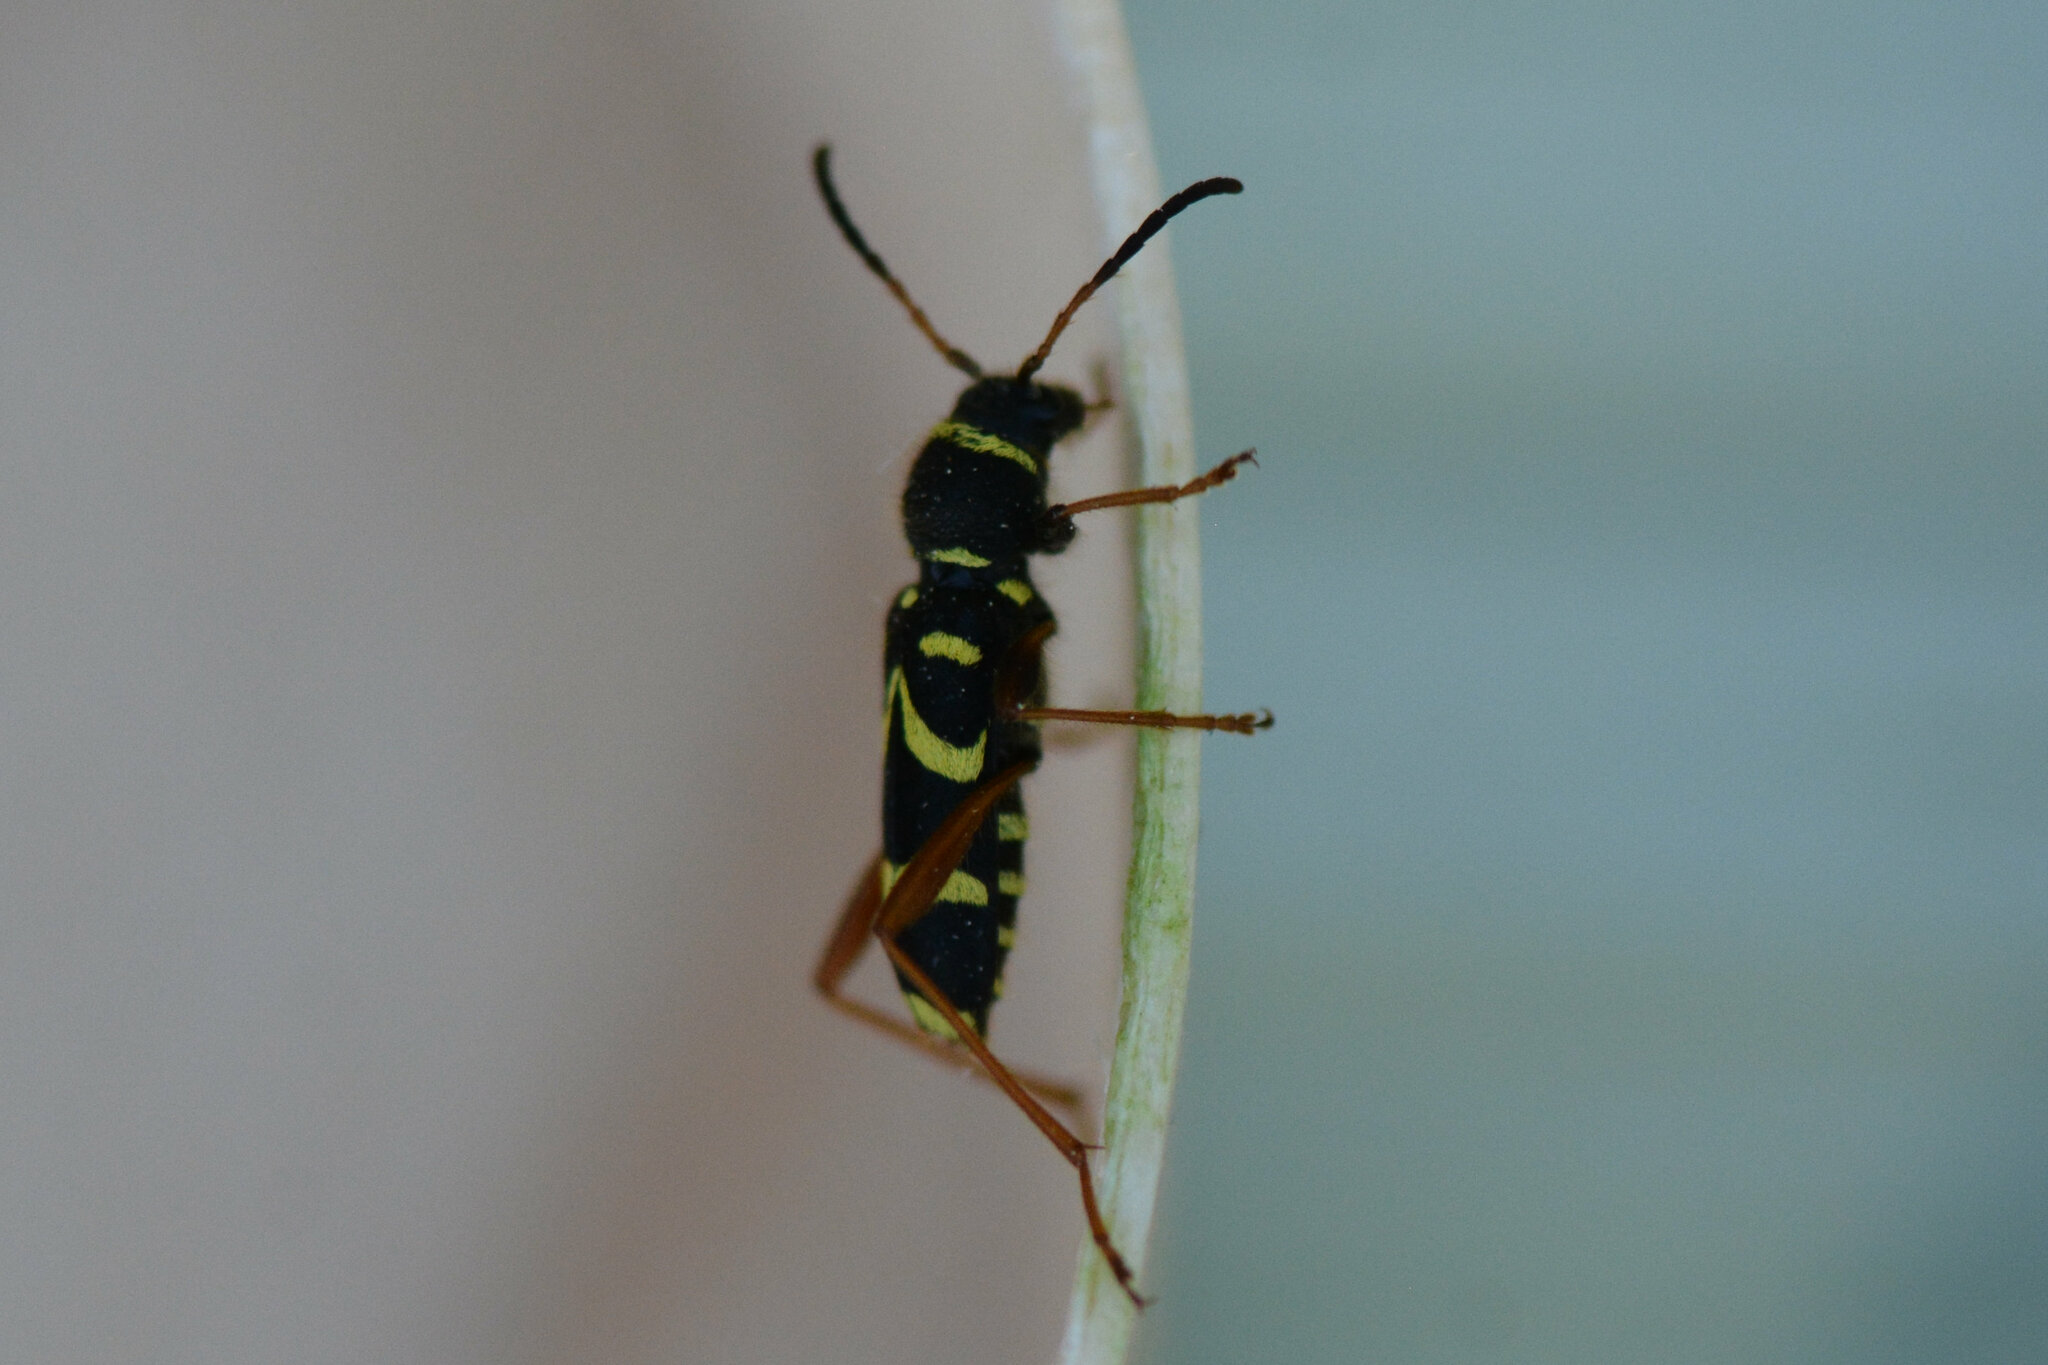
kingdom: Animalia
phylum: Arthropoda
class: Insecta
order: Coleoptera
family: Cerambycidae
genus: Clytus
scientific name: Clytus arietis
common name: Wasp beetle
